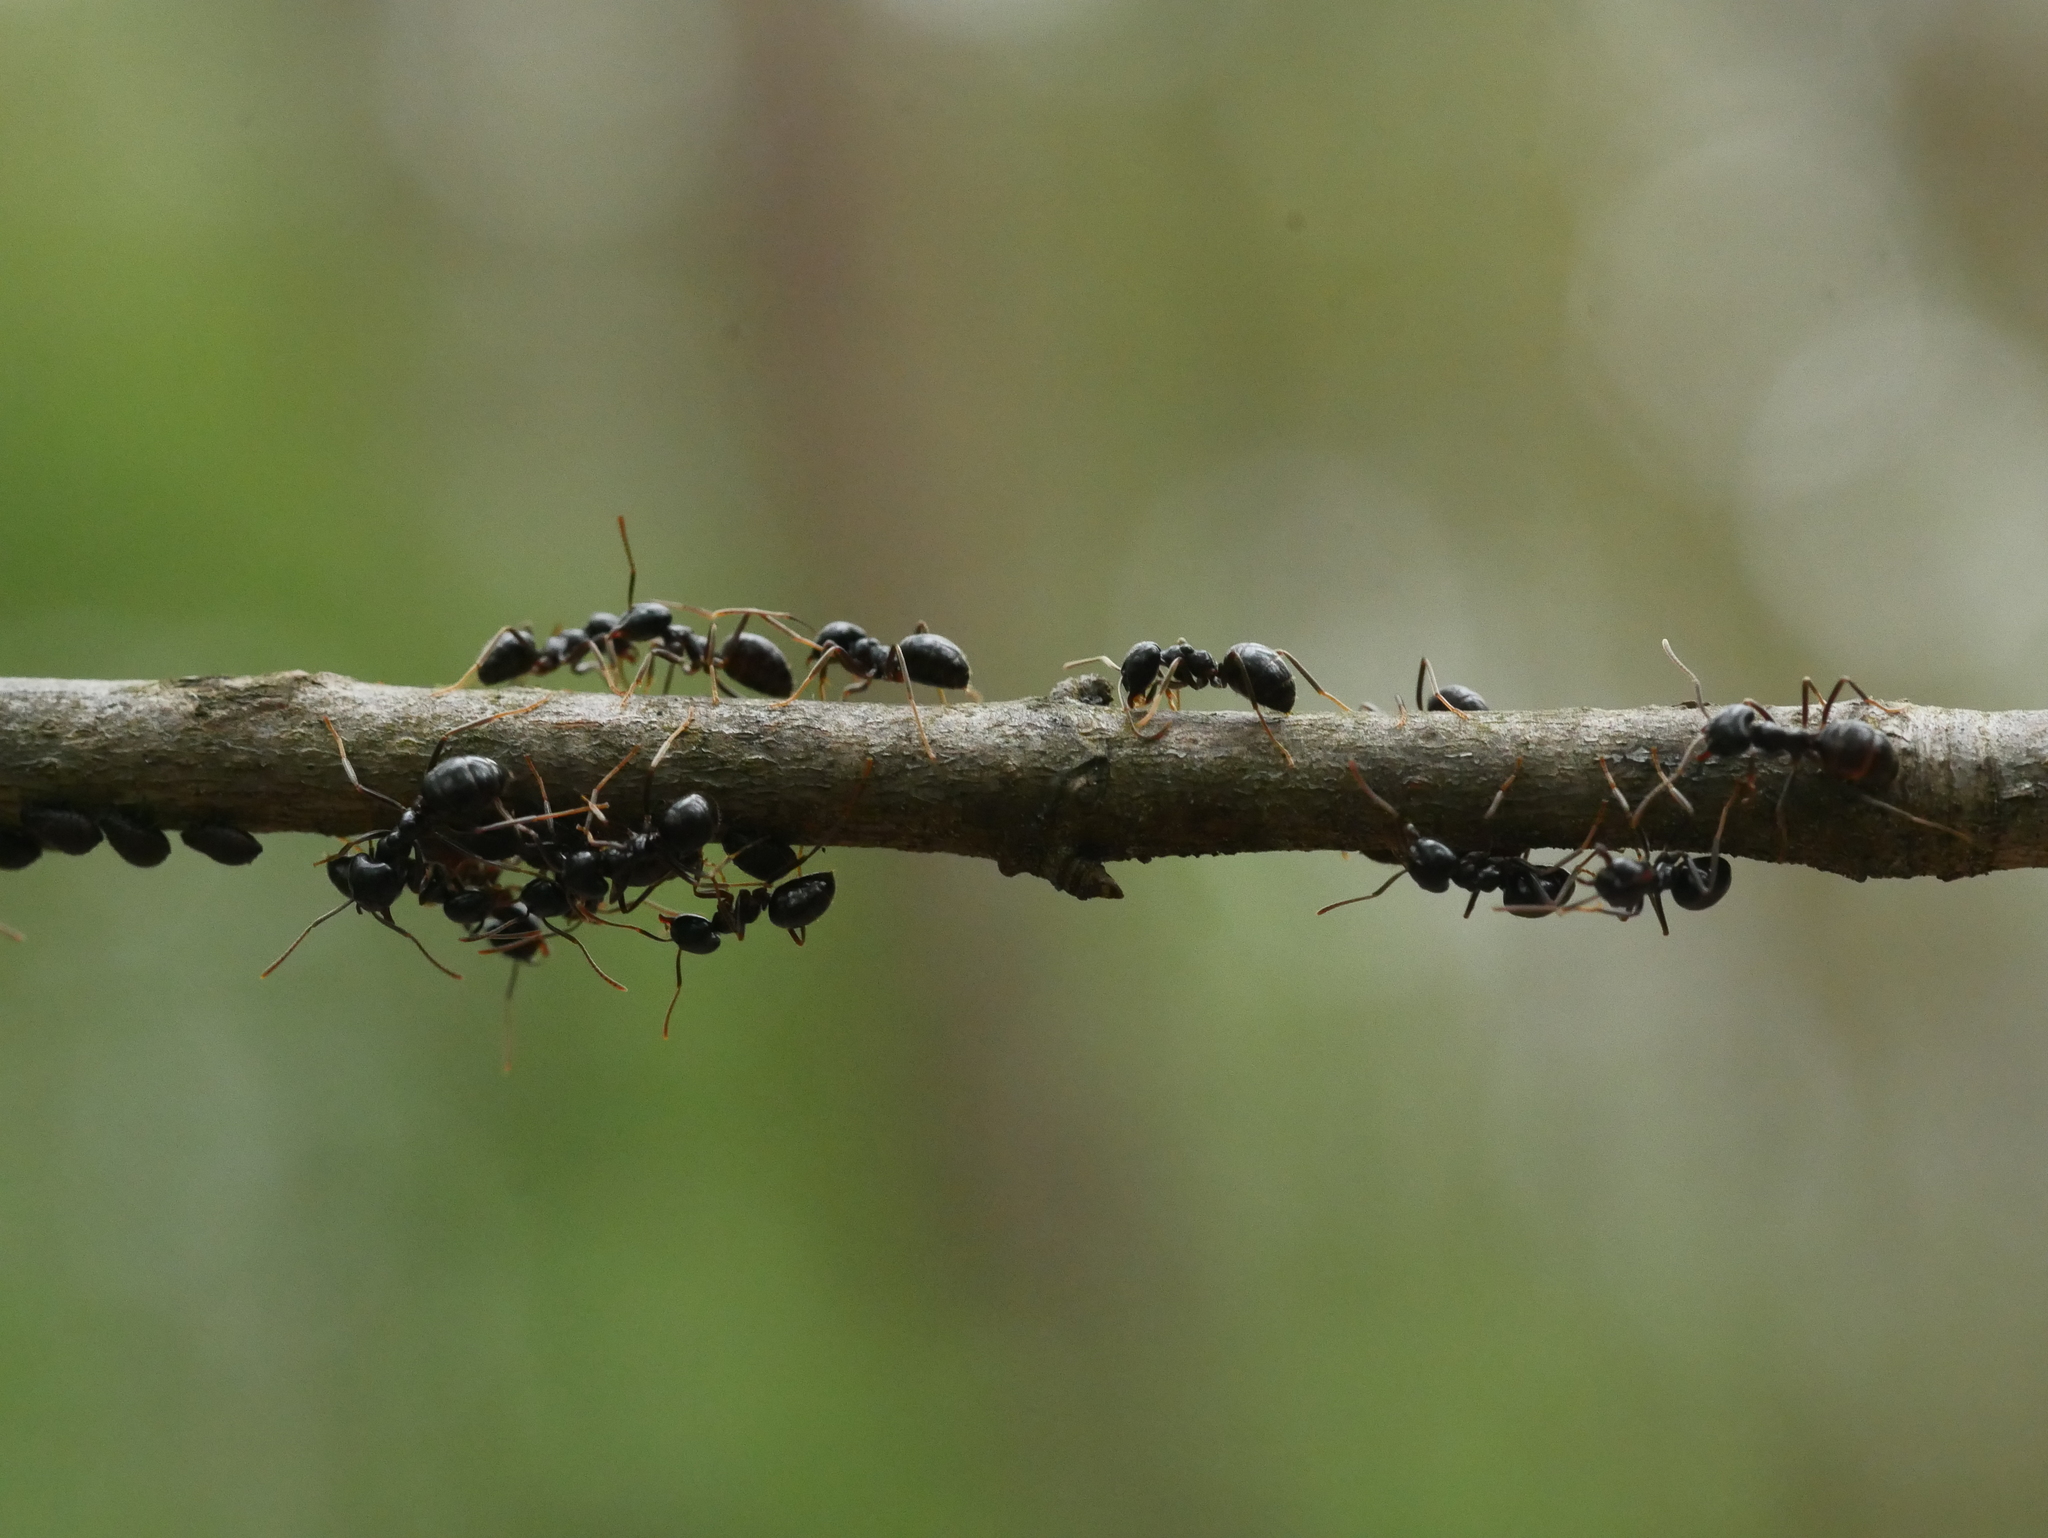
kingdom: Animalia
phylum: Arthropoda
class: Insecta
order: Hymenoptera
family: Formicidae
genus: Lasius
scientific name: Lasius fuliginosus
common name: Jet ant
